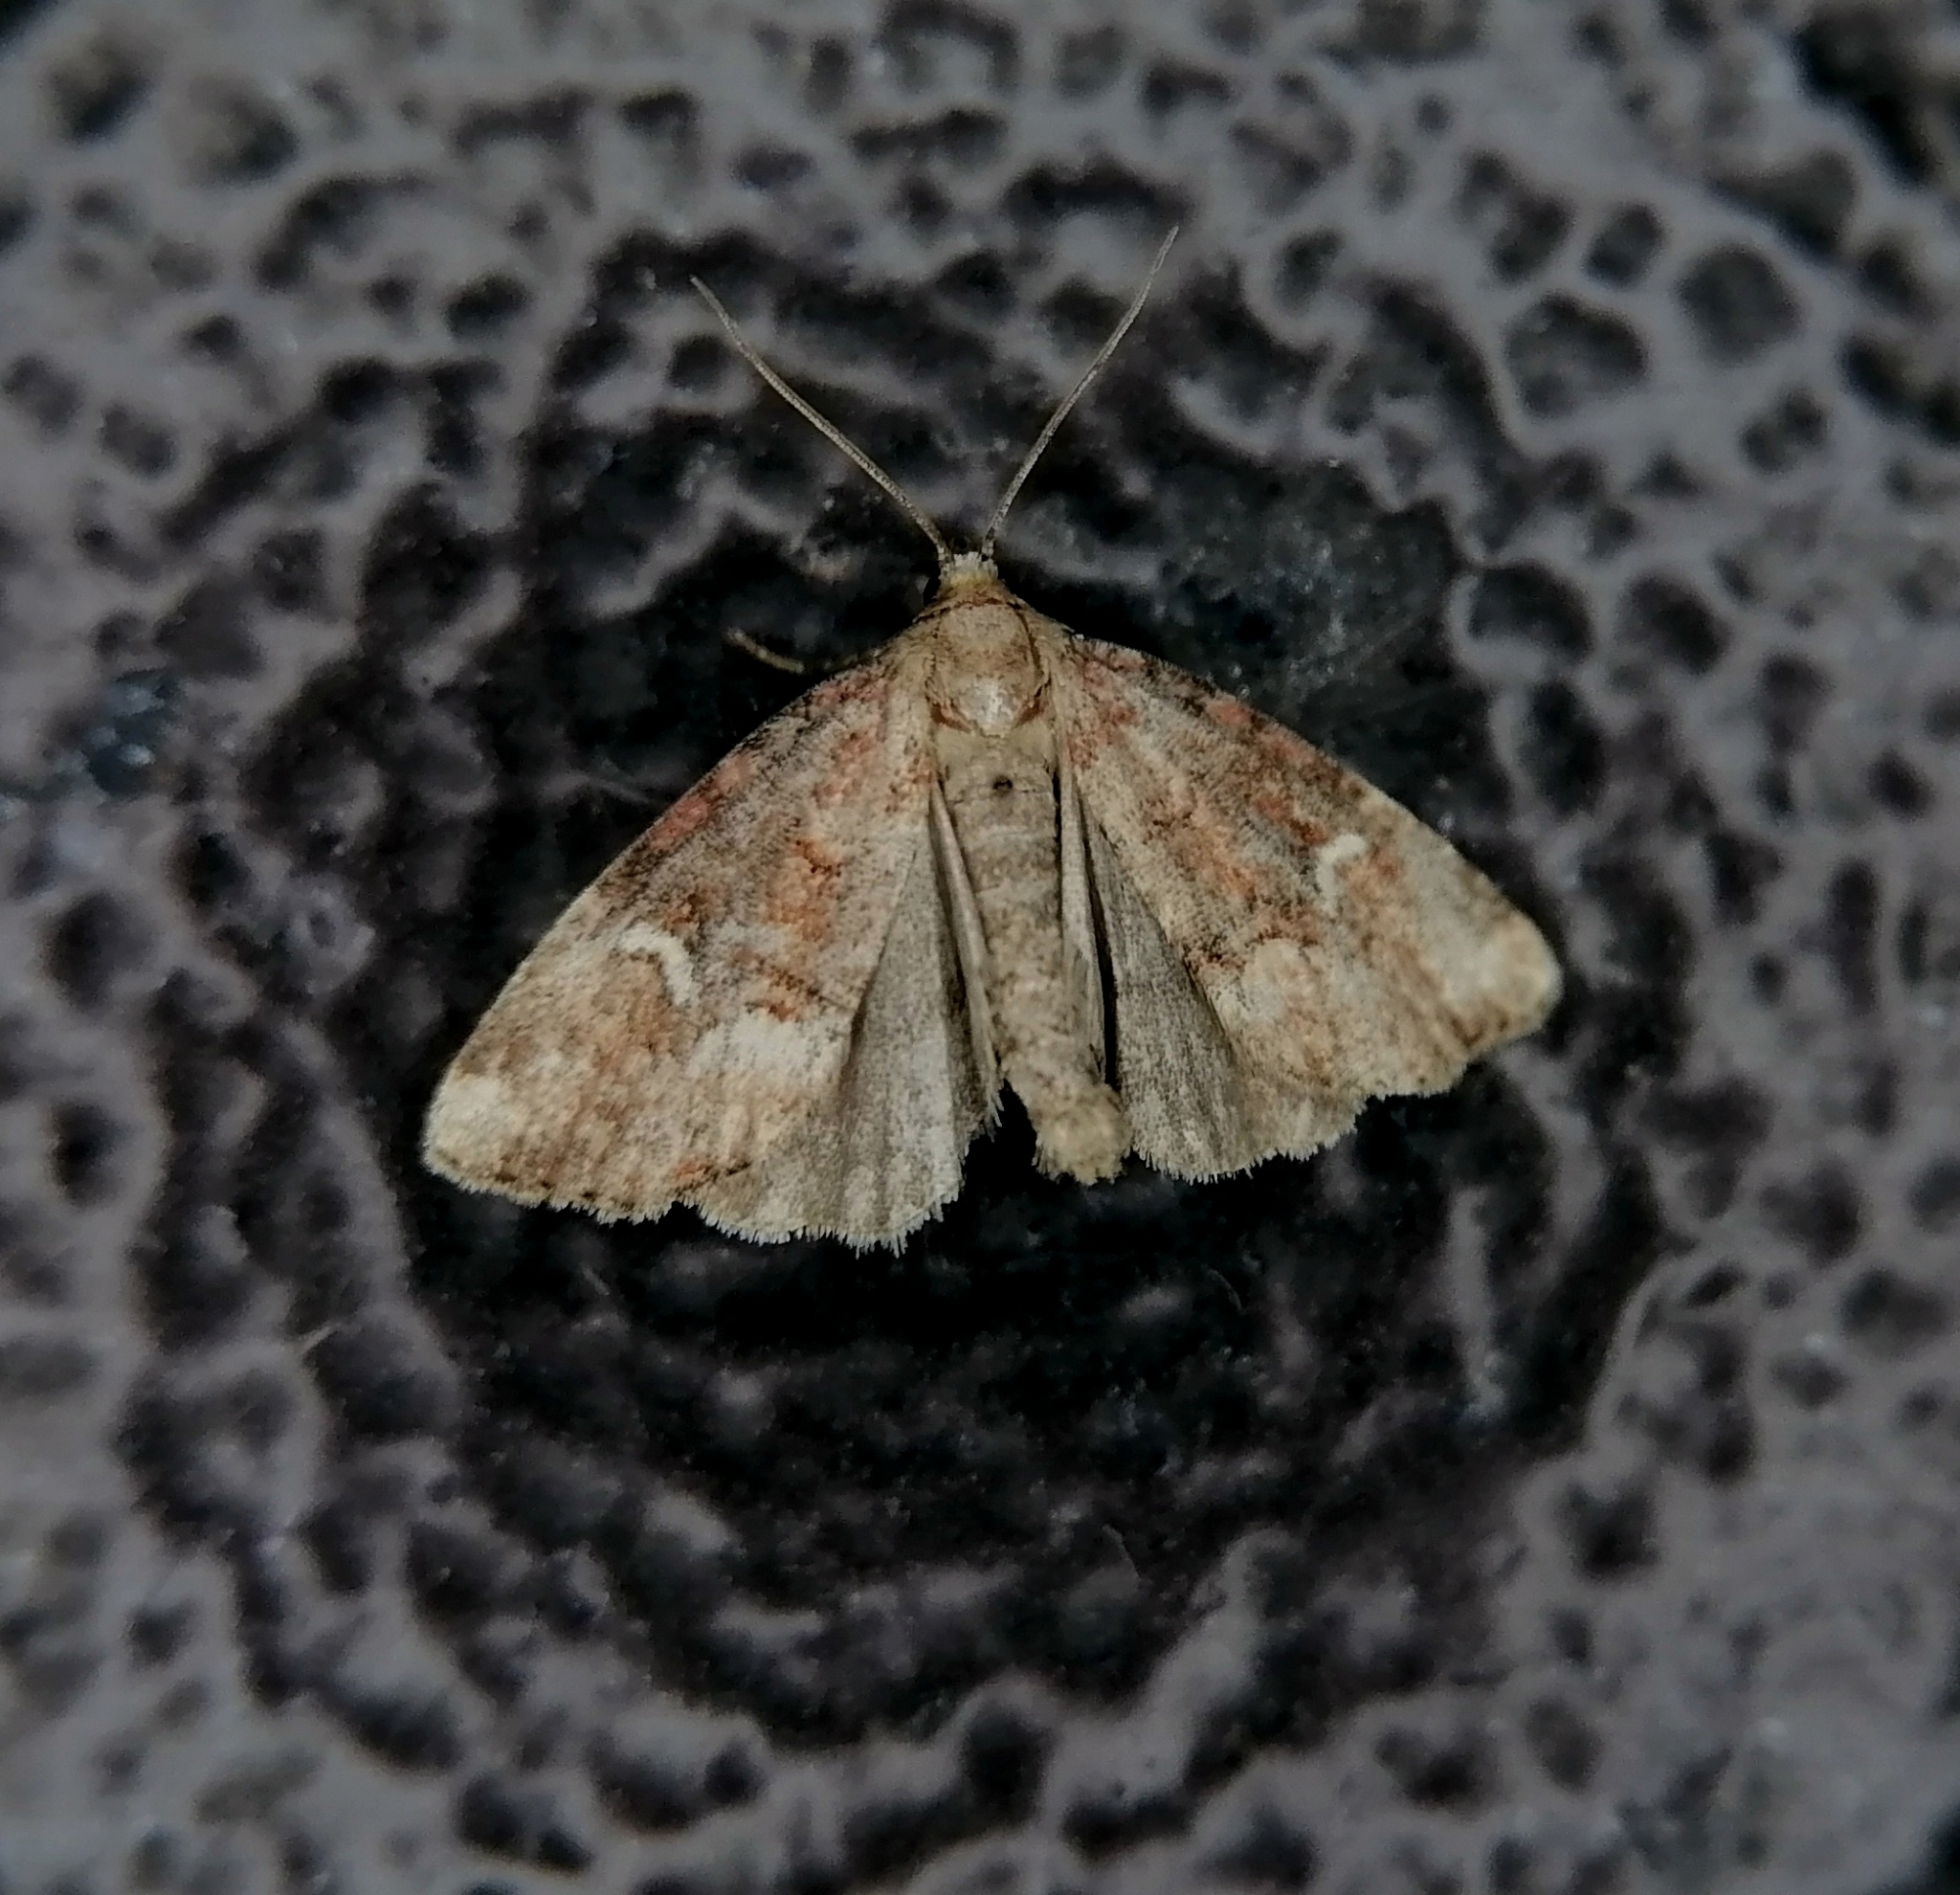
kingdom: Animalia
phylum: Arthropoda
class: Insecta
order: Lepidoptera
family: Noctuidae
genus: Oligia
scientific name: Oligia leuconephra
